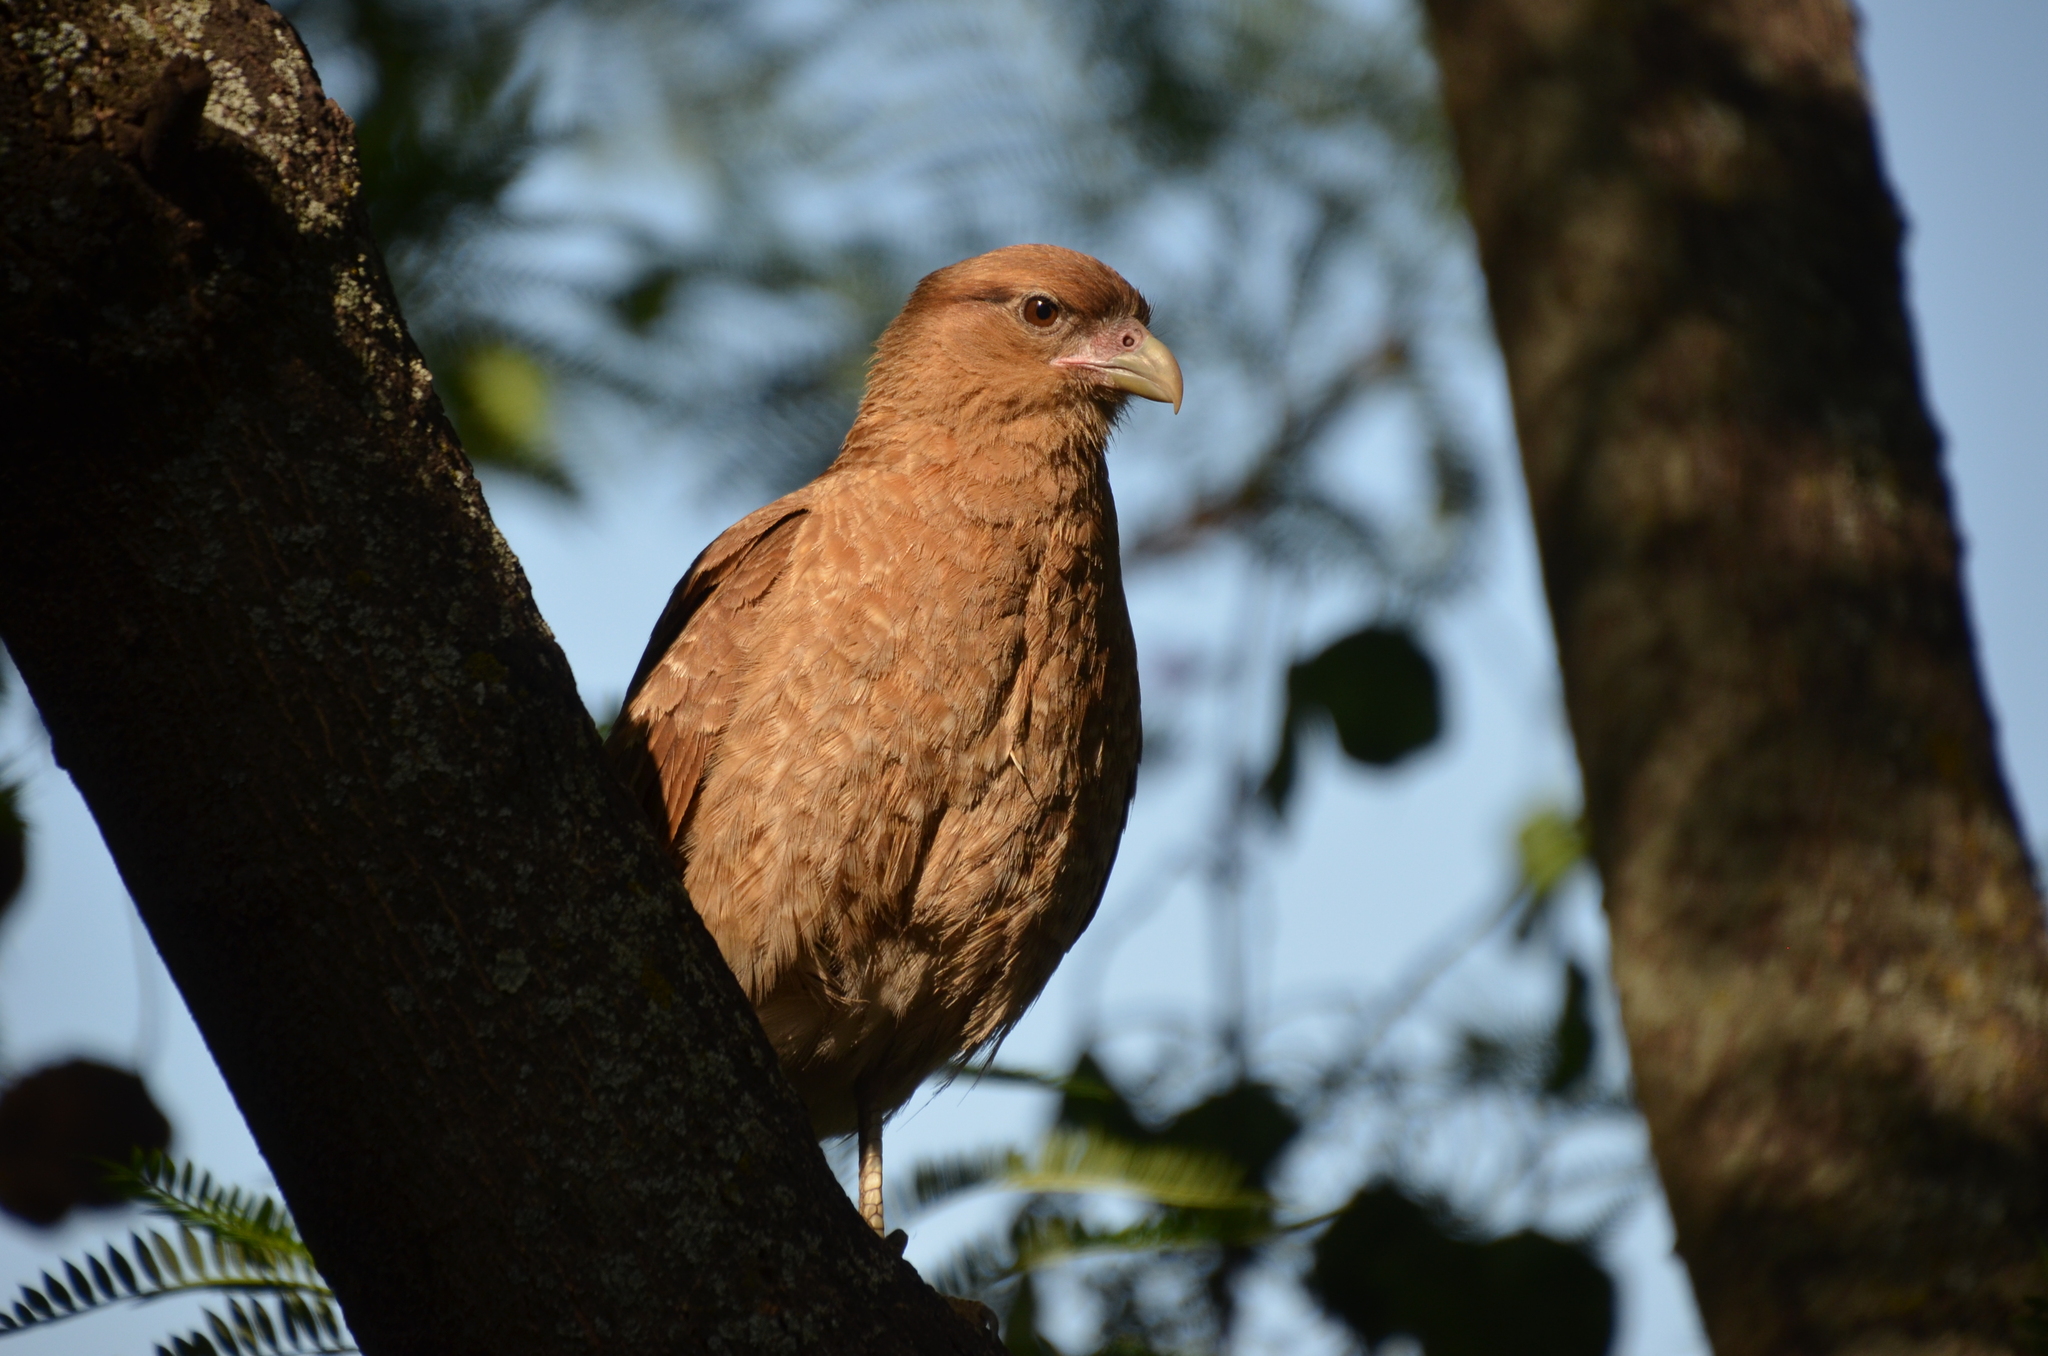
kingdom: Animalia
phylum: Chordata
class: Aves
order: Falconiformes
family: Falconidae
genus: Daptrius
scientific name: Daptrius
